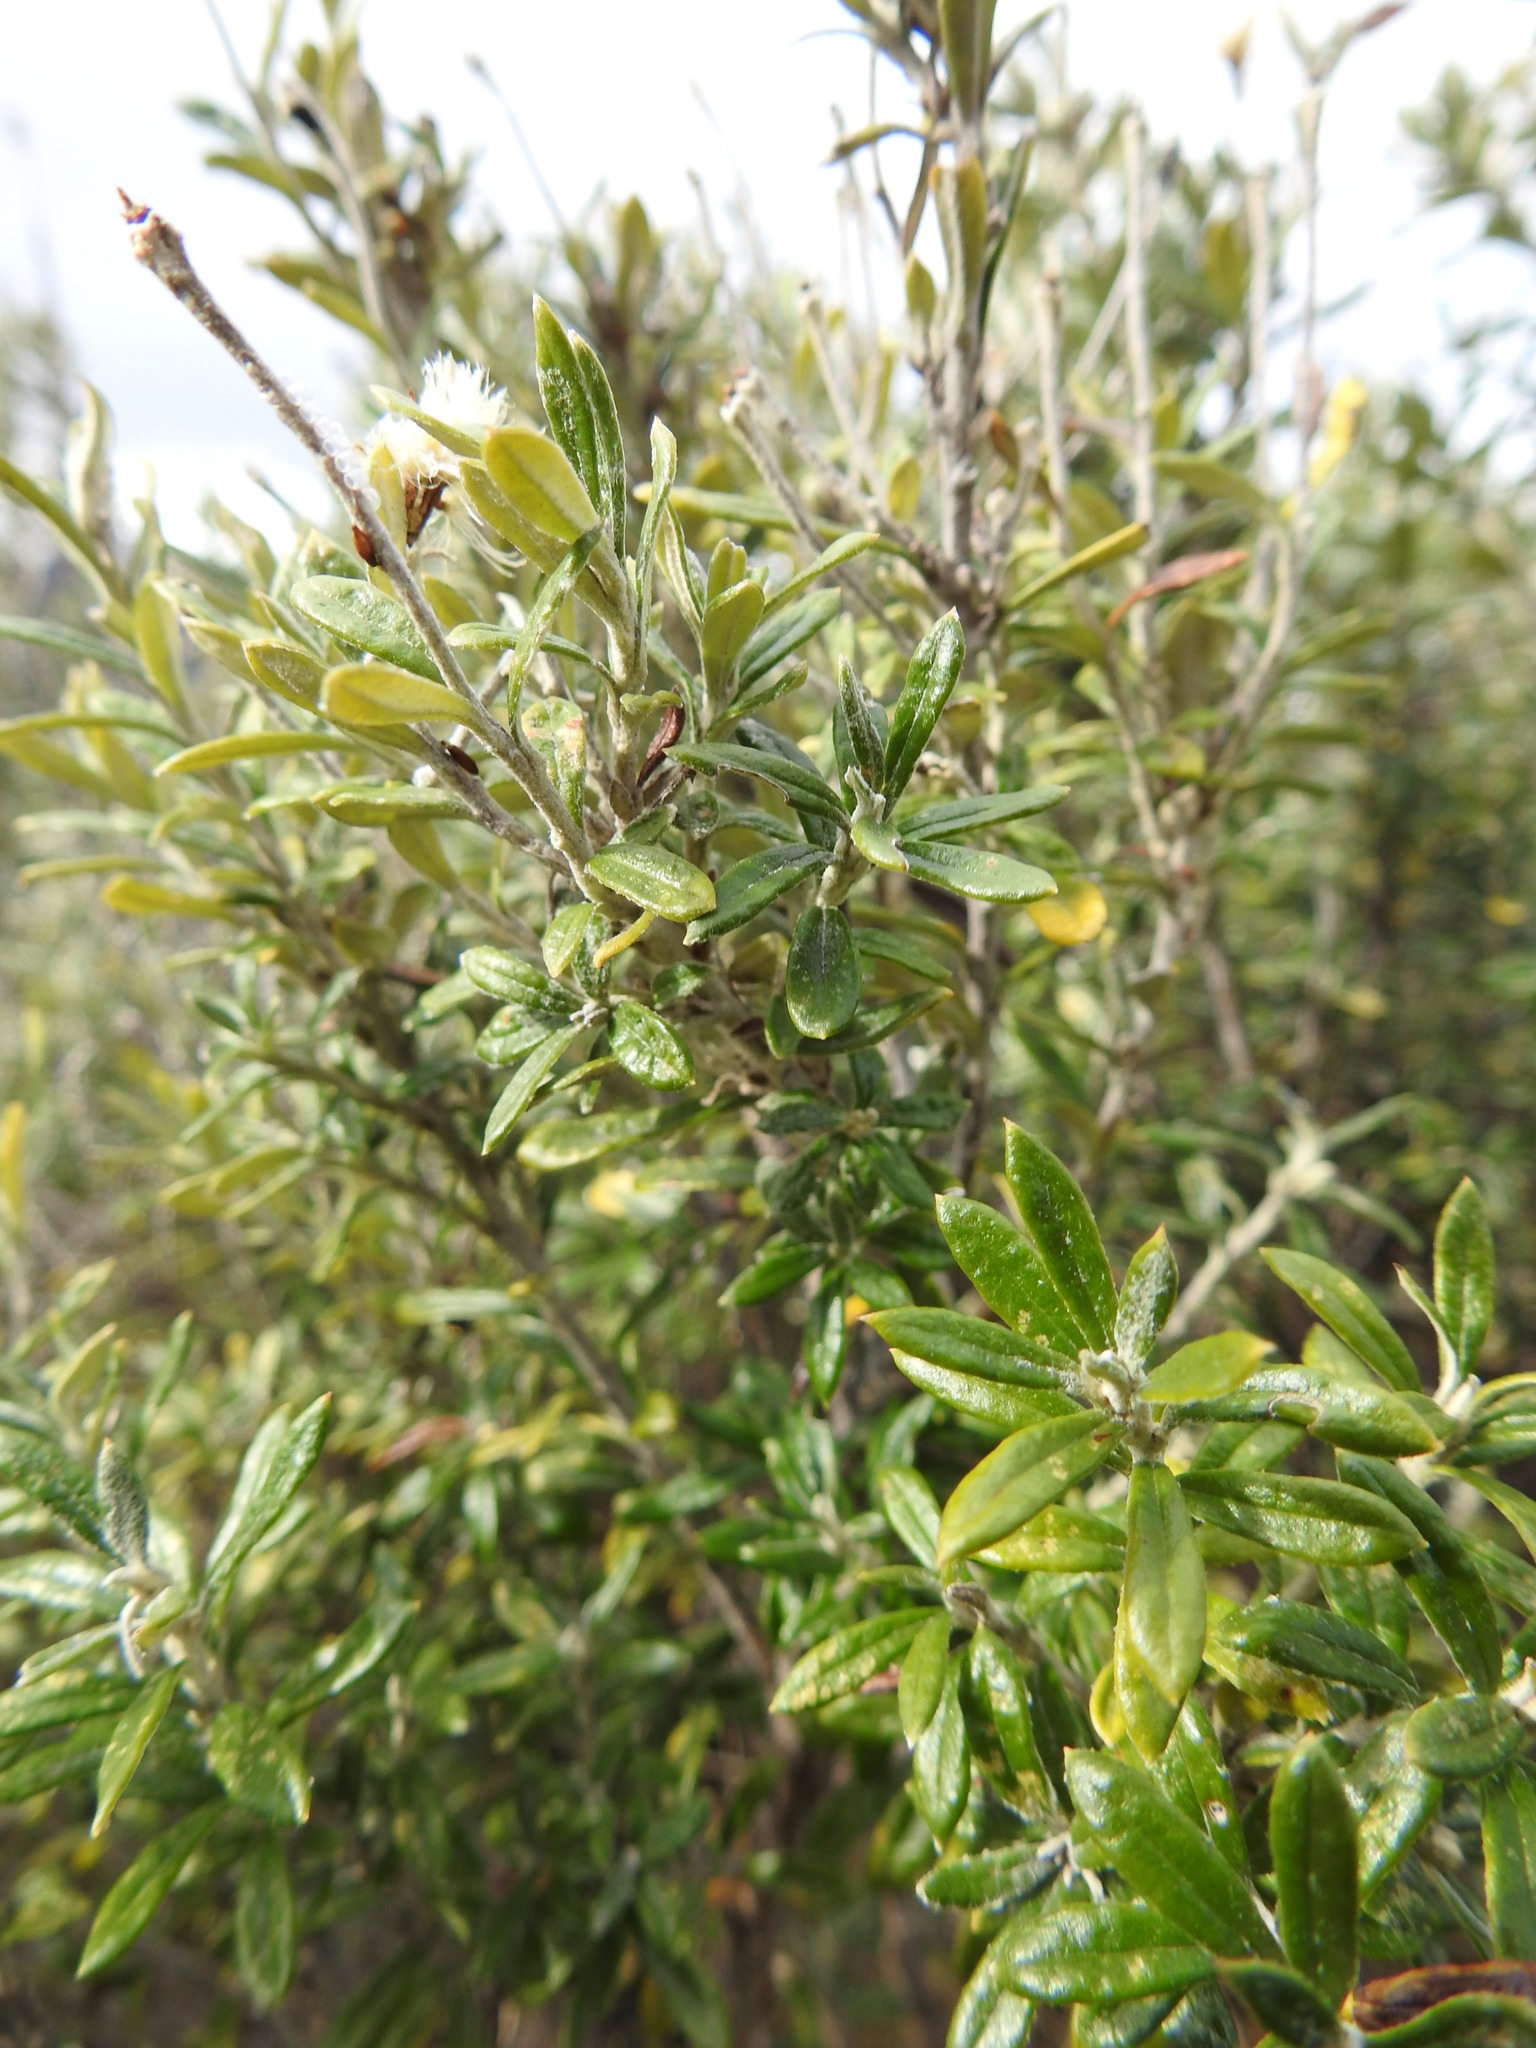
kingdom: Plantae
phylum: Tracheophyta
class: Magnoliopsida
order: Asterales
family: Asteraceae
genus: Chiliotrichum
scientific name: Chiliotrichum diffusum
